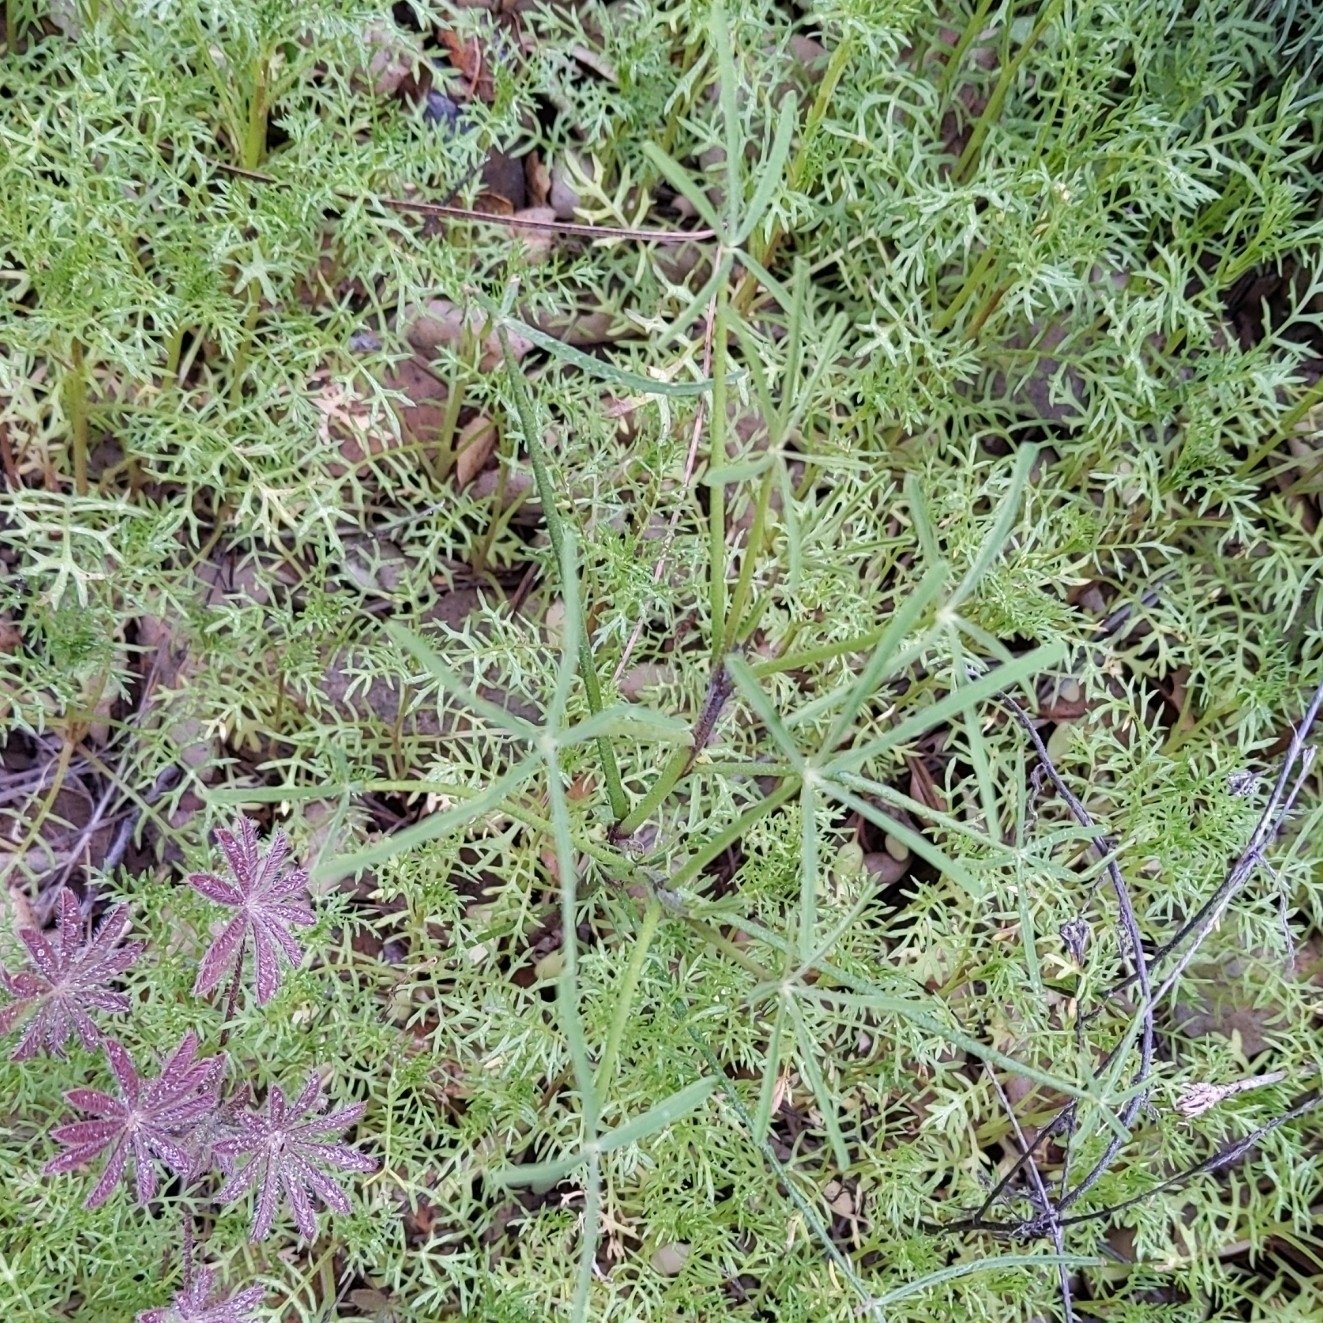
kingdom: Plantae
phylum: Tracheophyta
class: Magnoliopsida
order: Fabales
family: Fabaceae
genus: Lupinus
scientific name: Lupinus truncatus
